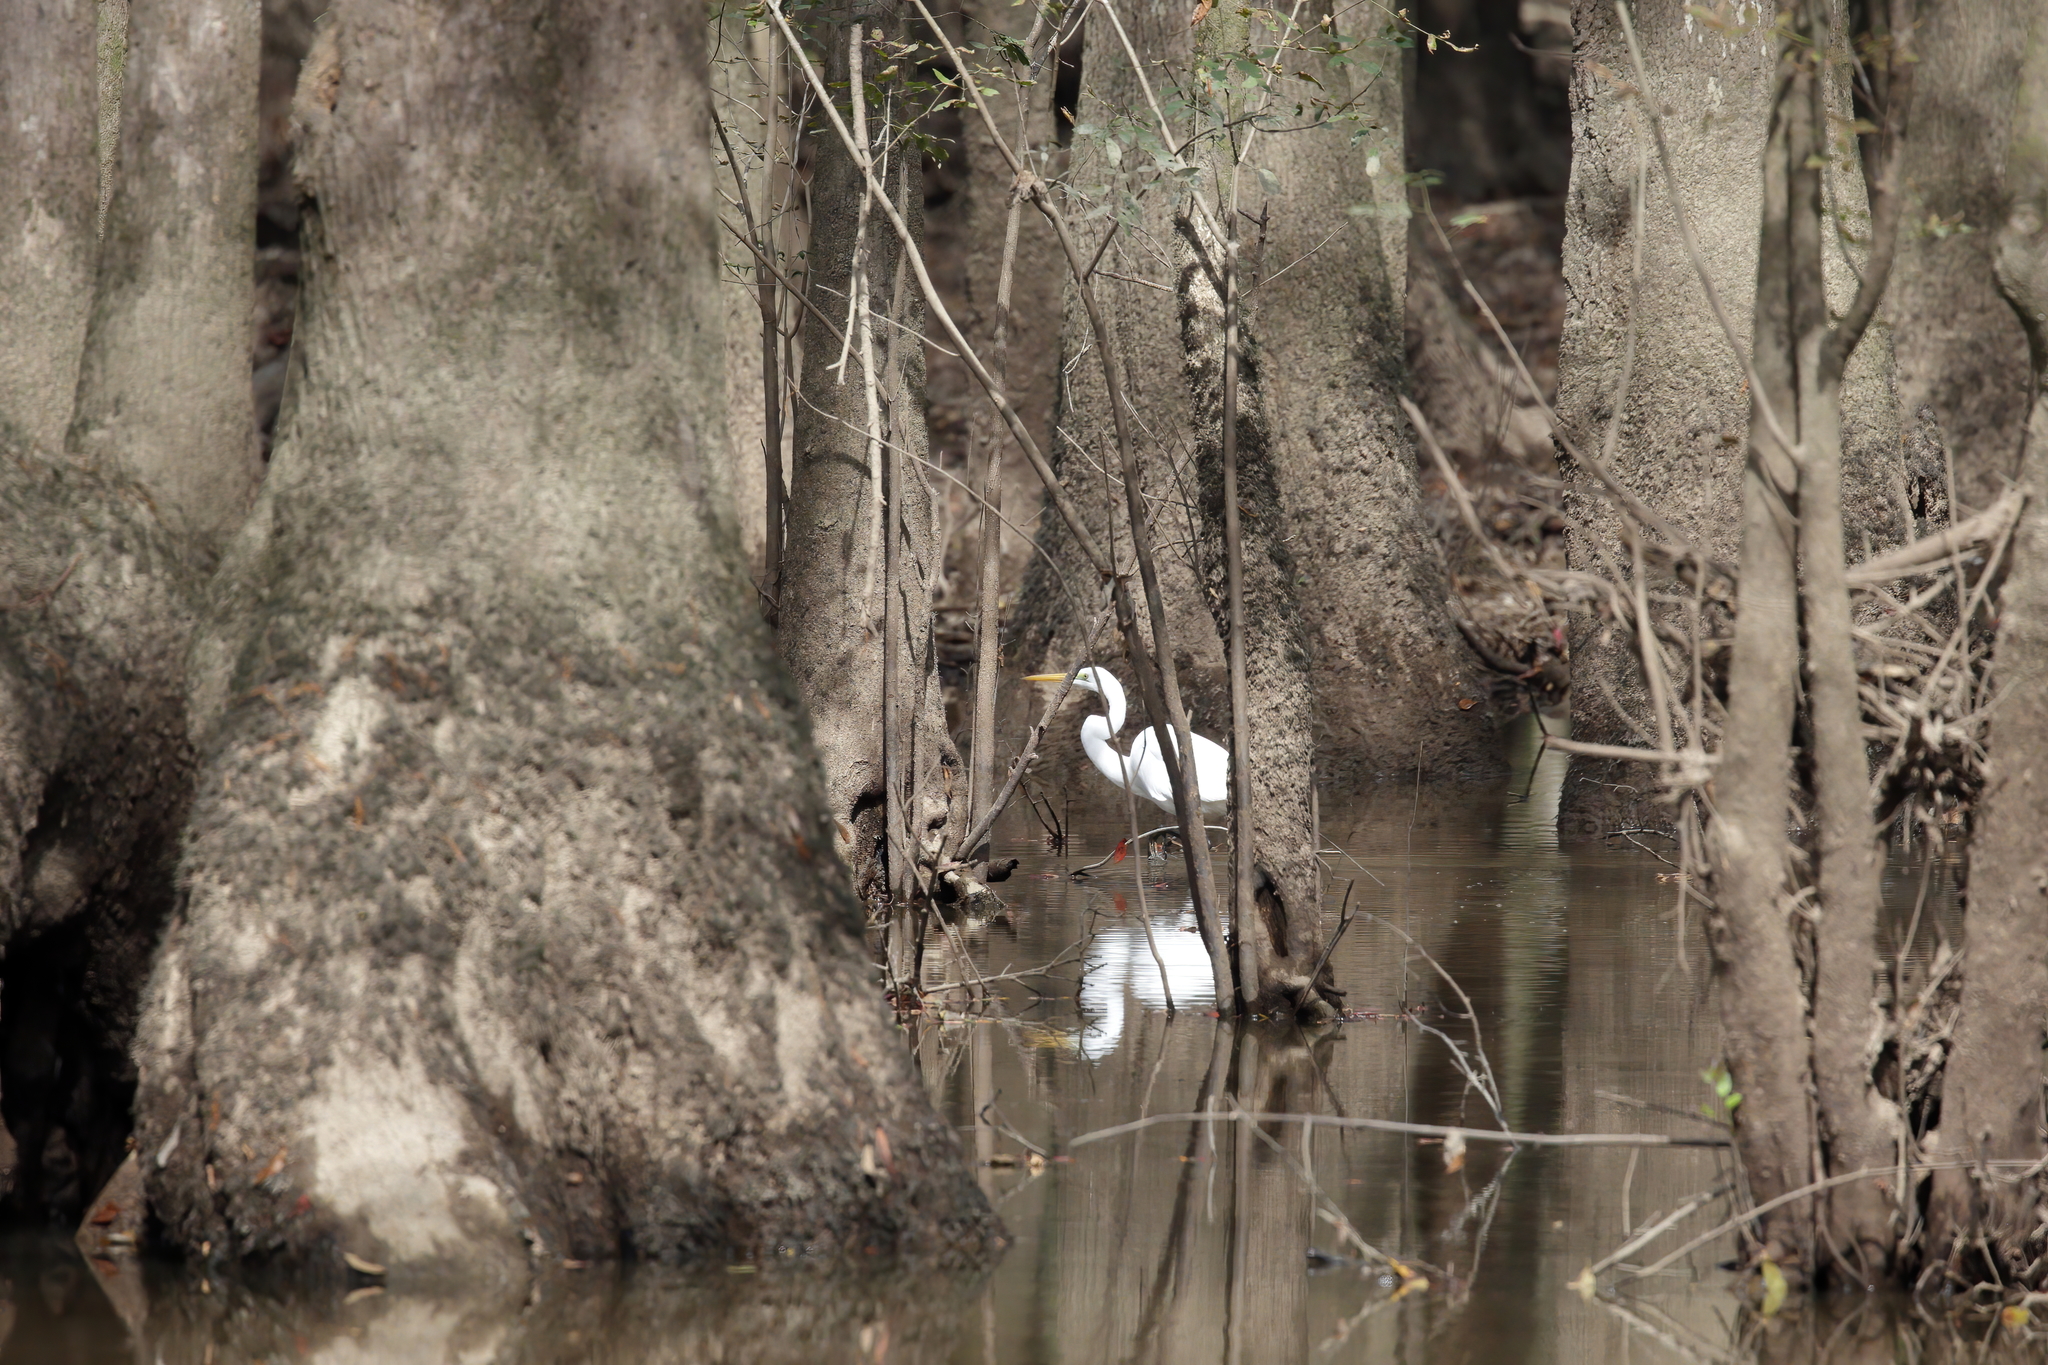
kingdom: Animalia
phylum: Chordata
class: Aves
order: Pelecaniformes
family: Ardeidae
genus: Ardea
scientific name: Ardea alba
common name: Great egret
